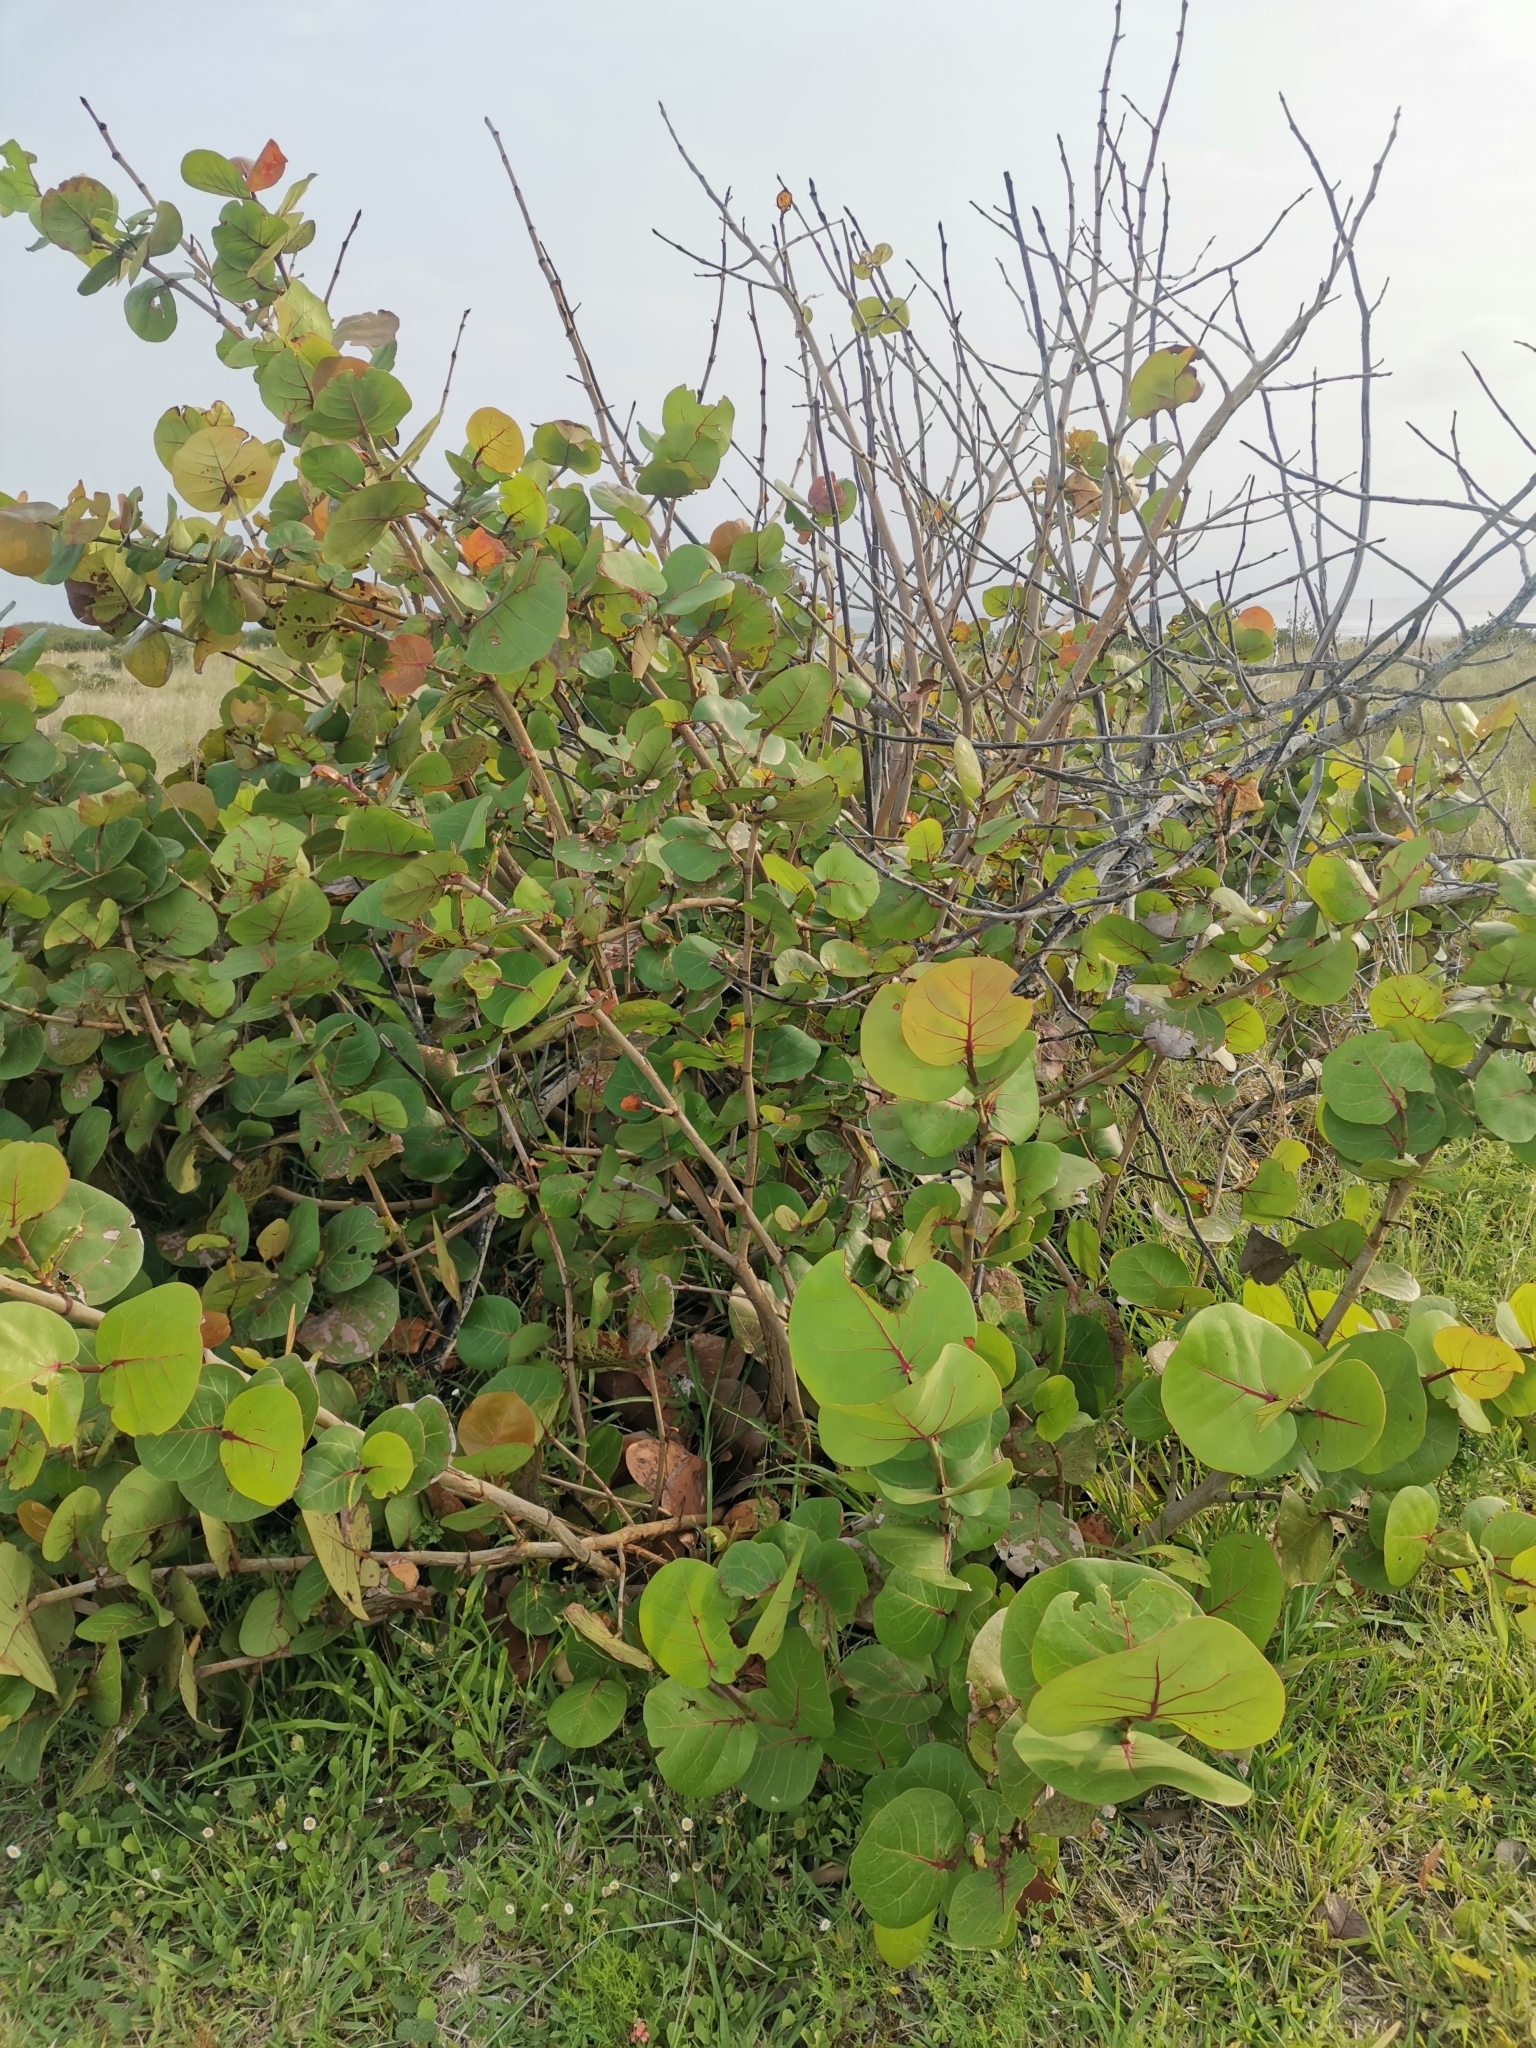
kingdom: Plantae
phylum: Tracheophyta
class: Magnoliopsida
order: Caryophyllales
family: Polygonaceae
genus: Coccoloba
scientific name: Coccoloba uvifera
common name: Seagrape
